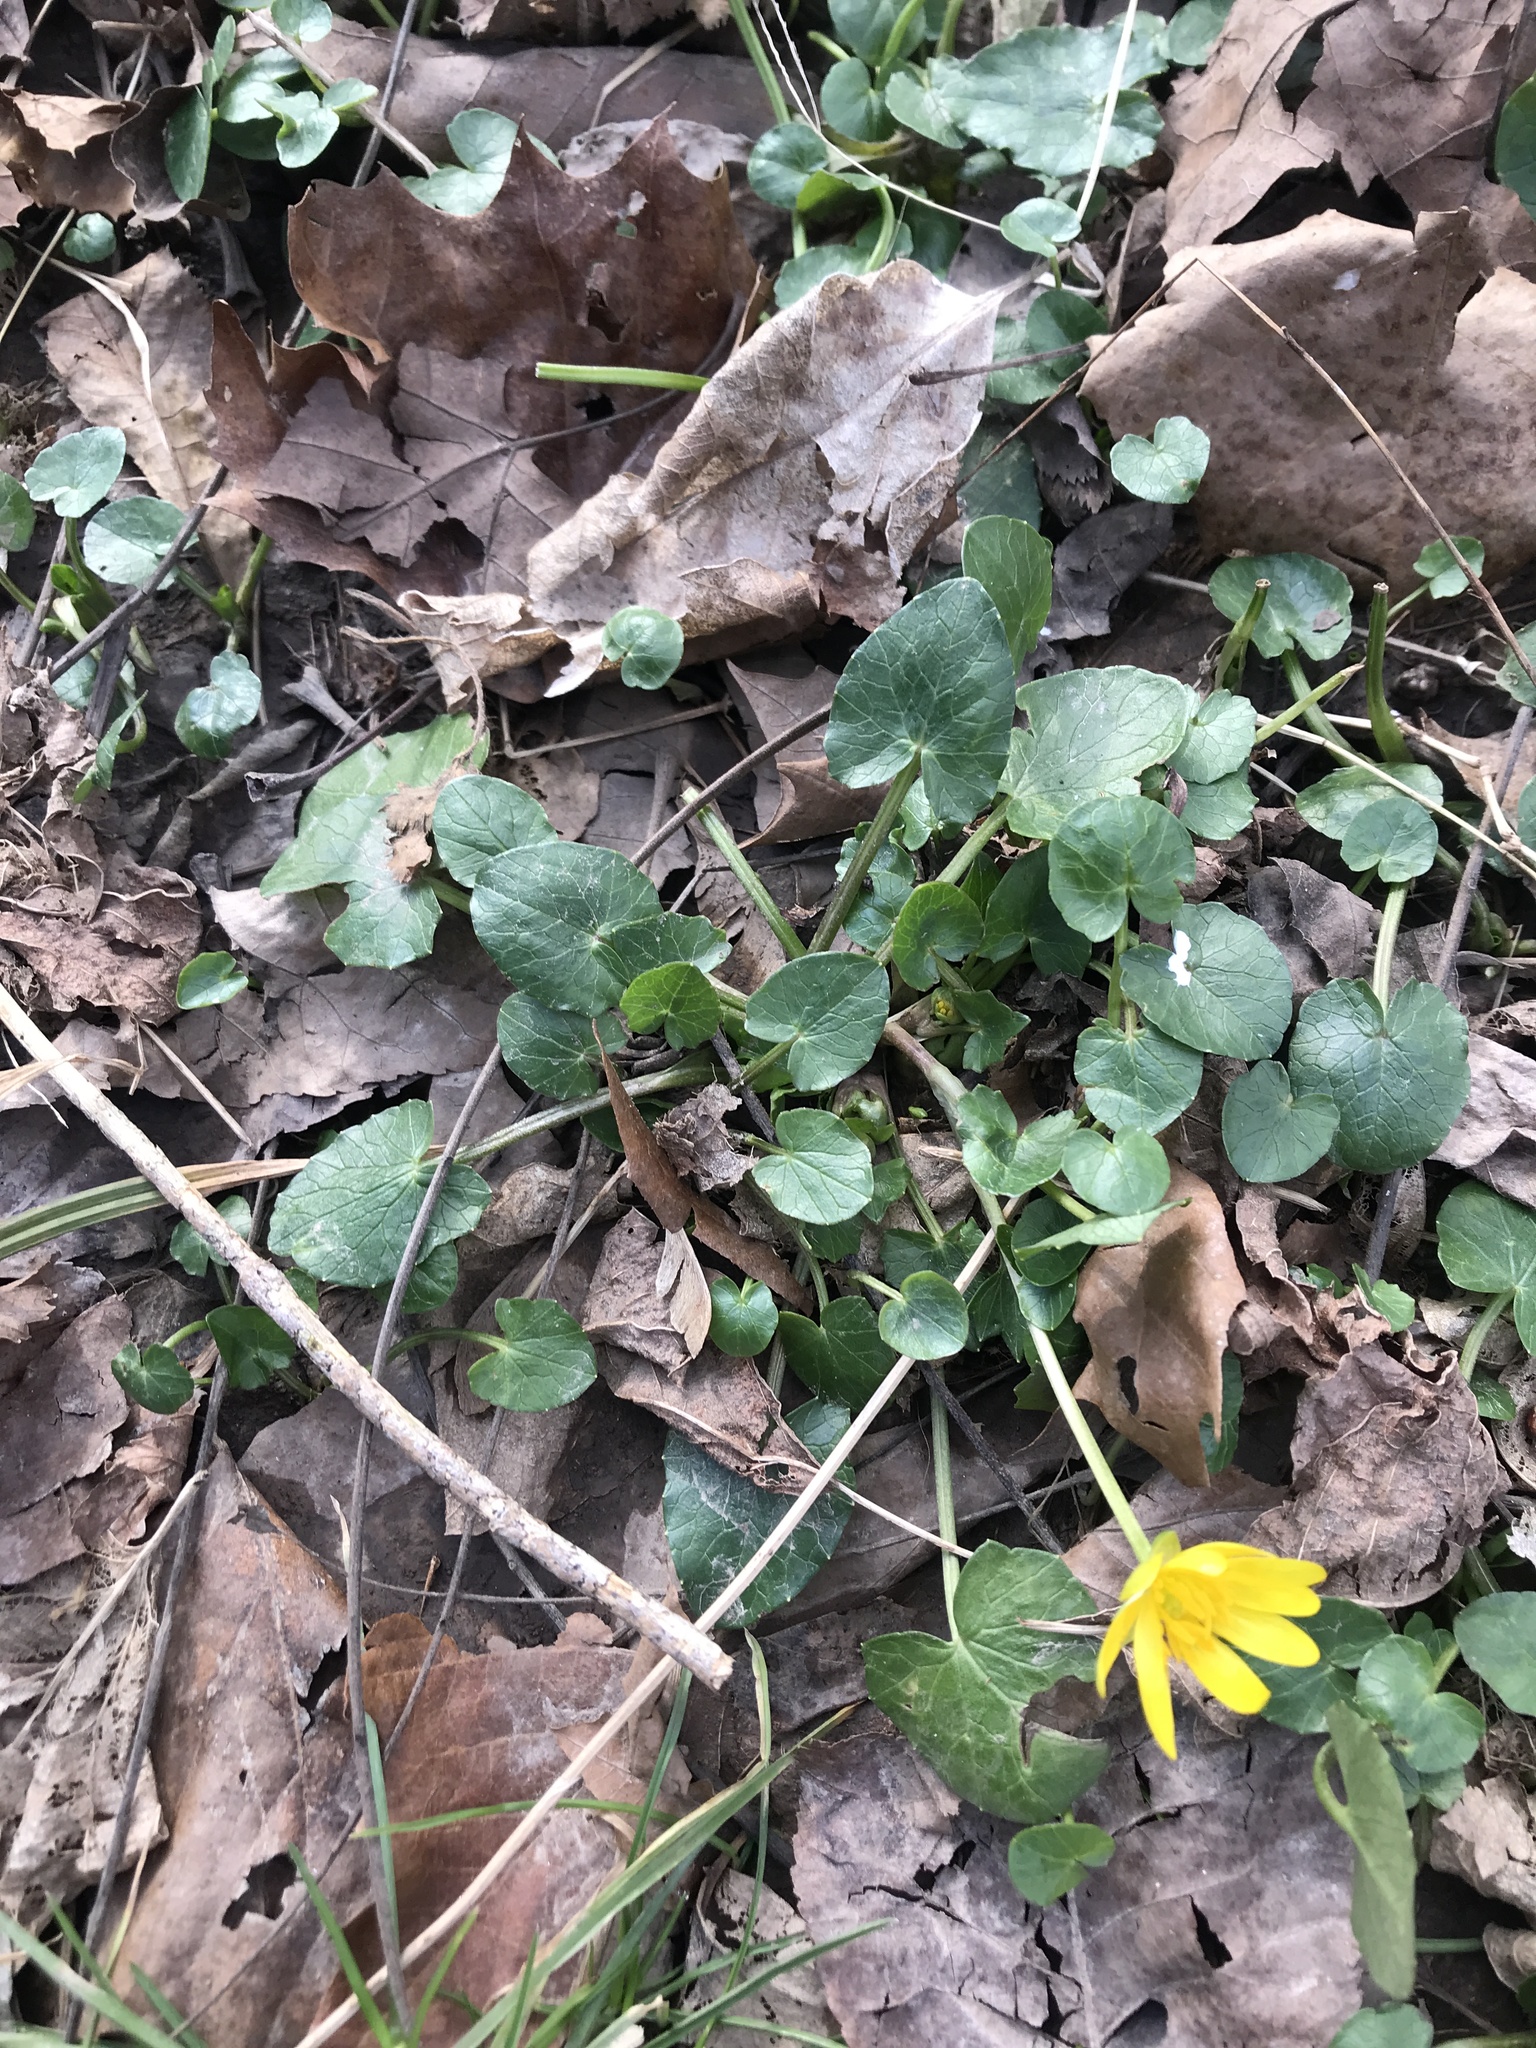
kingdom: Plantae
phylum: Tracheophyta
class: Magnoliopsida
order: Ranunculales
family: Ranunculaceae
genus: Ficaria
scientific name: Ficaria verna
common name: Lesser celandine
